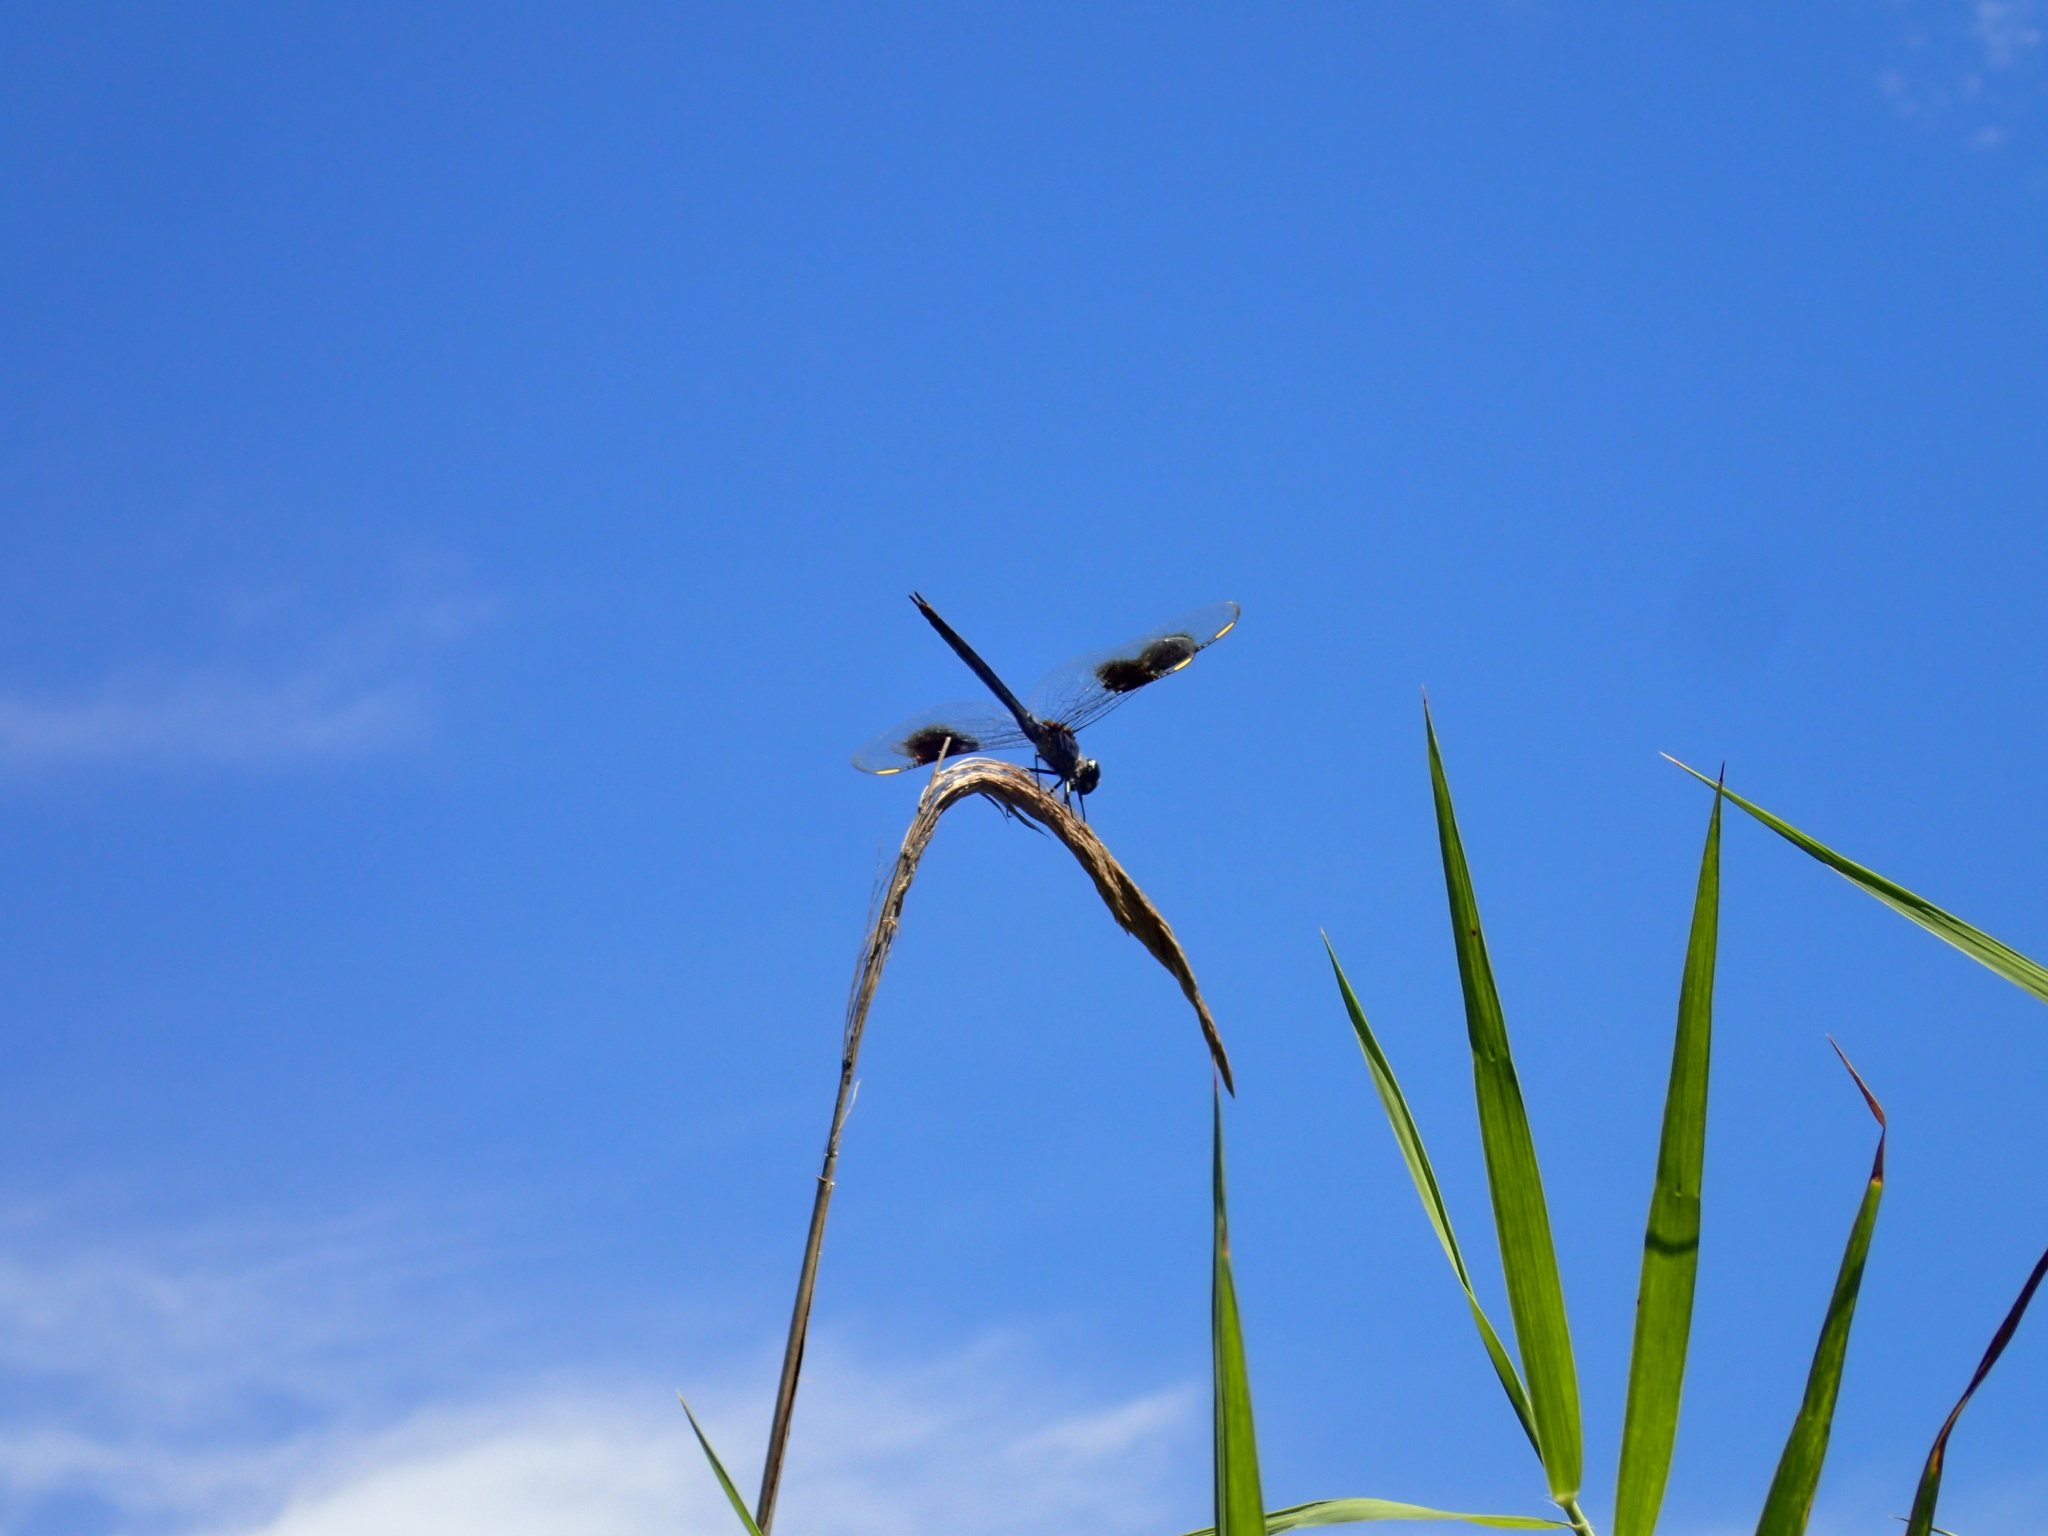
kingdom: Animalia
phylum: Arthropoda
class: Insecta
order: Odonata
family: Libellulidae
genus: Brachymesia
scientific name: Brachymesia gravida
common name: Four-spotted pennant
